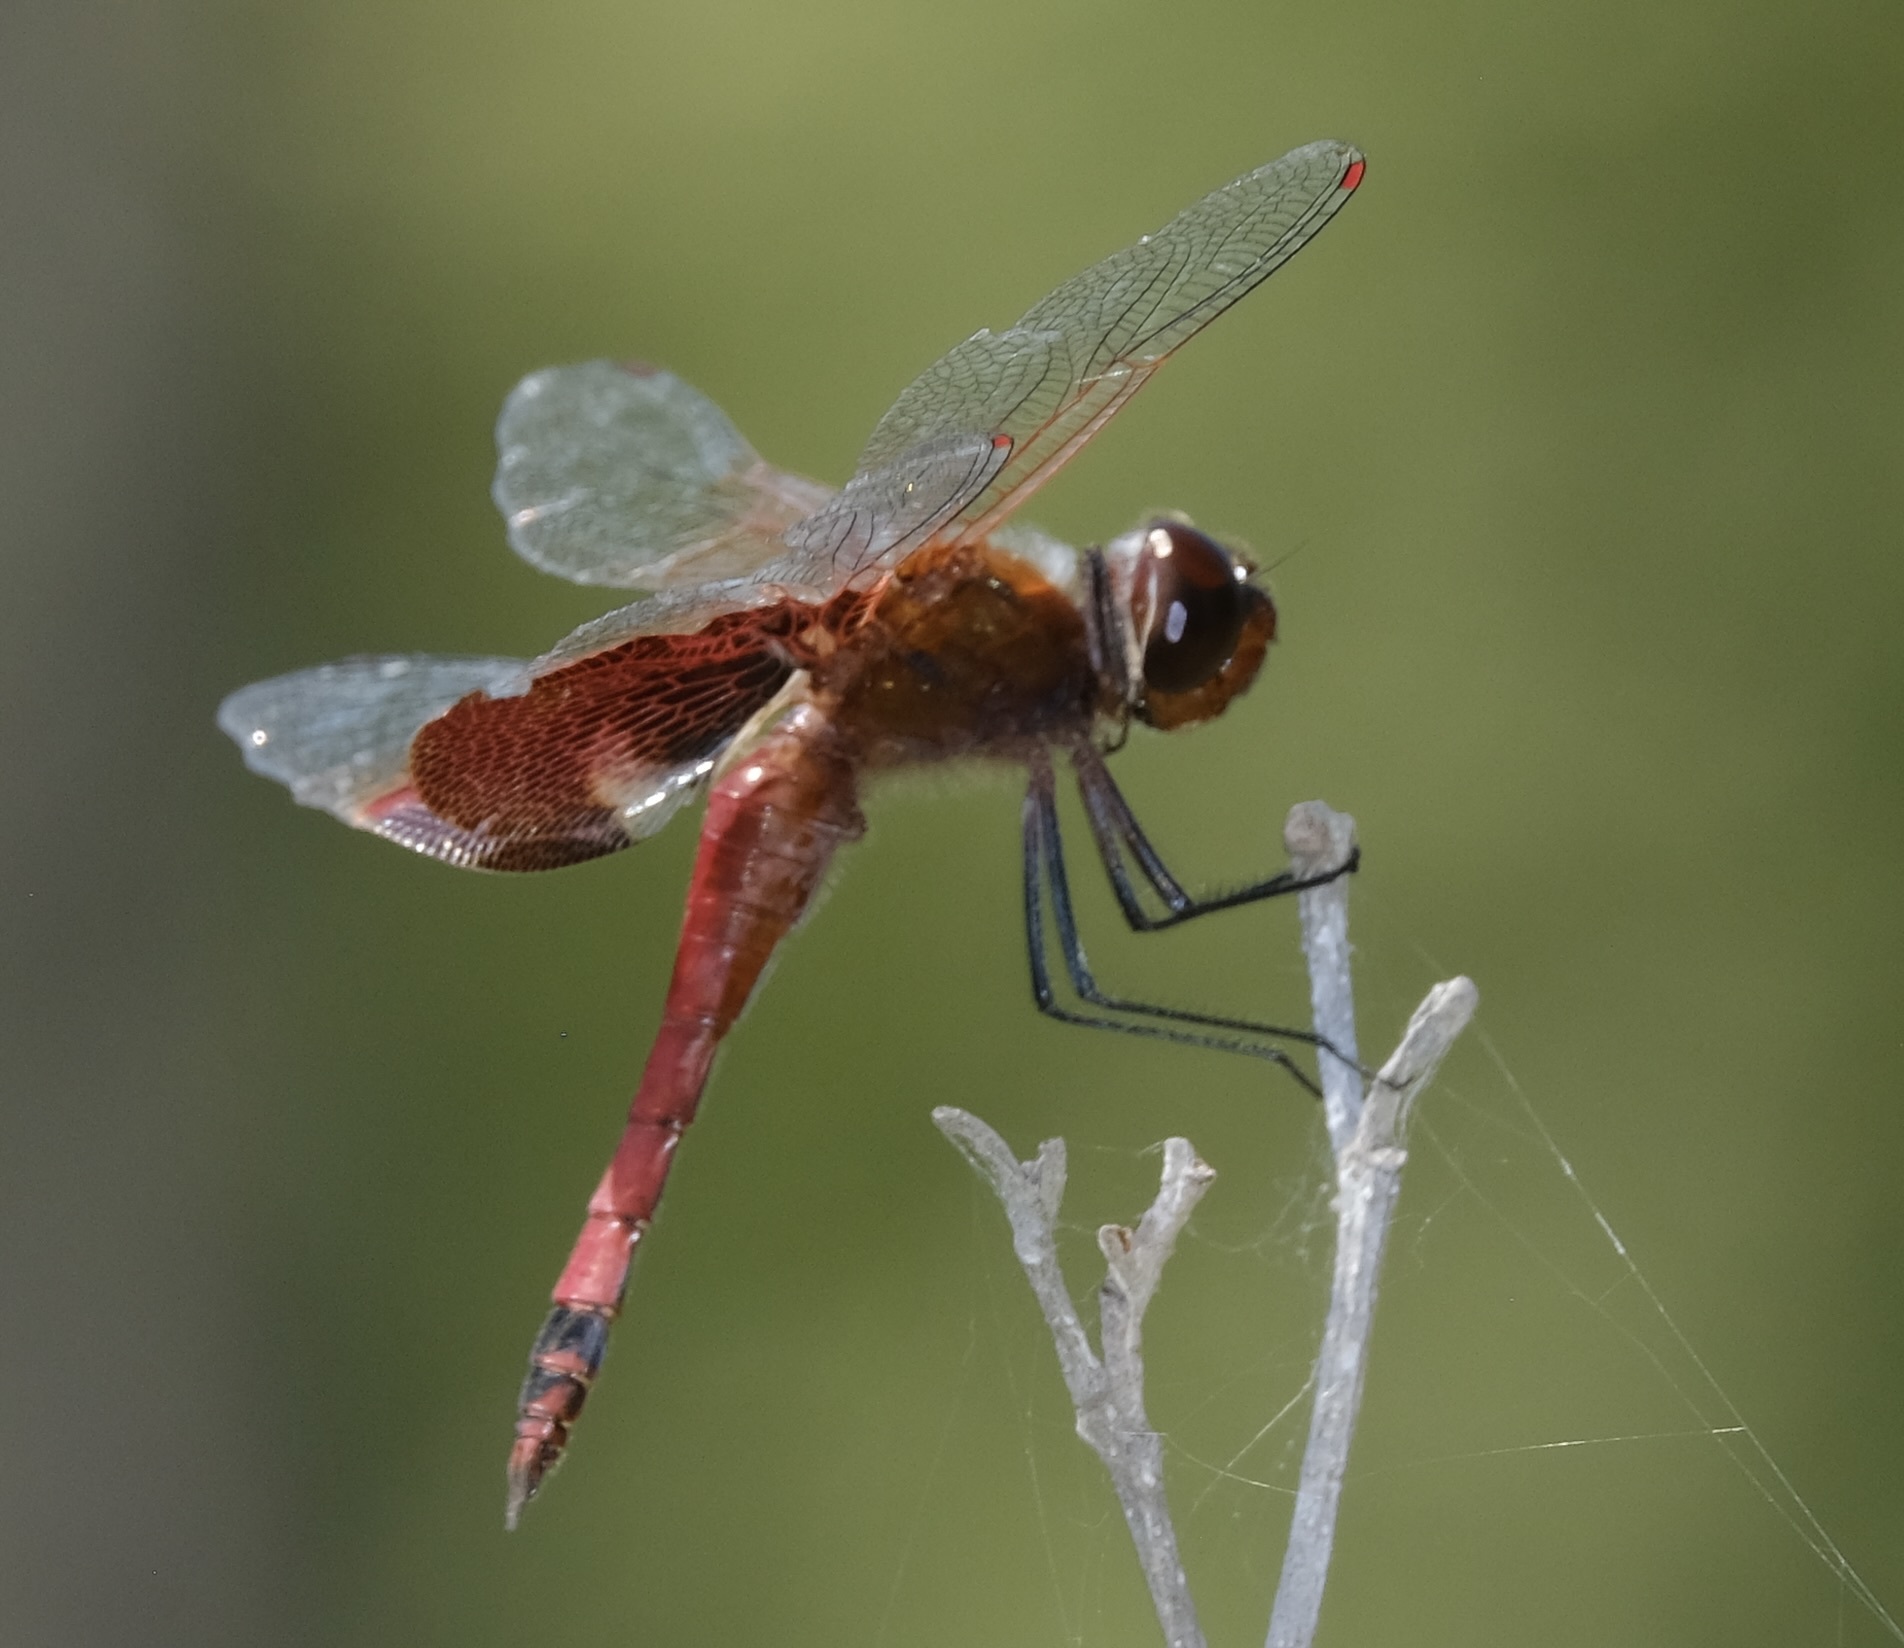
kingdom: Animalia
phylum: Arthropoda
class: Insecta
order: Odonata
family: Libellulidae
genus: Tramea
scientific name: Tramea carolina
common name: Carolina saddlebags
